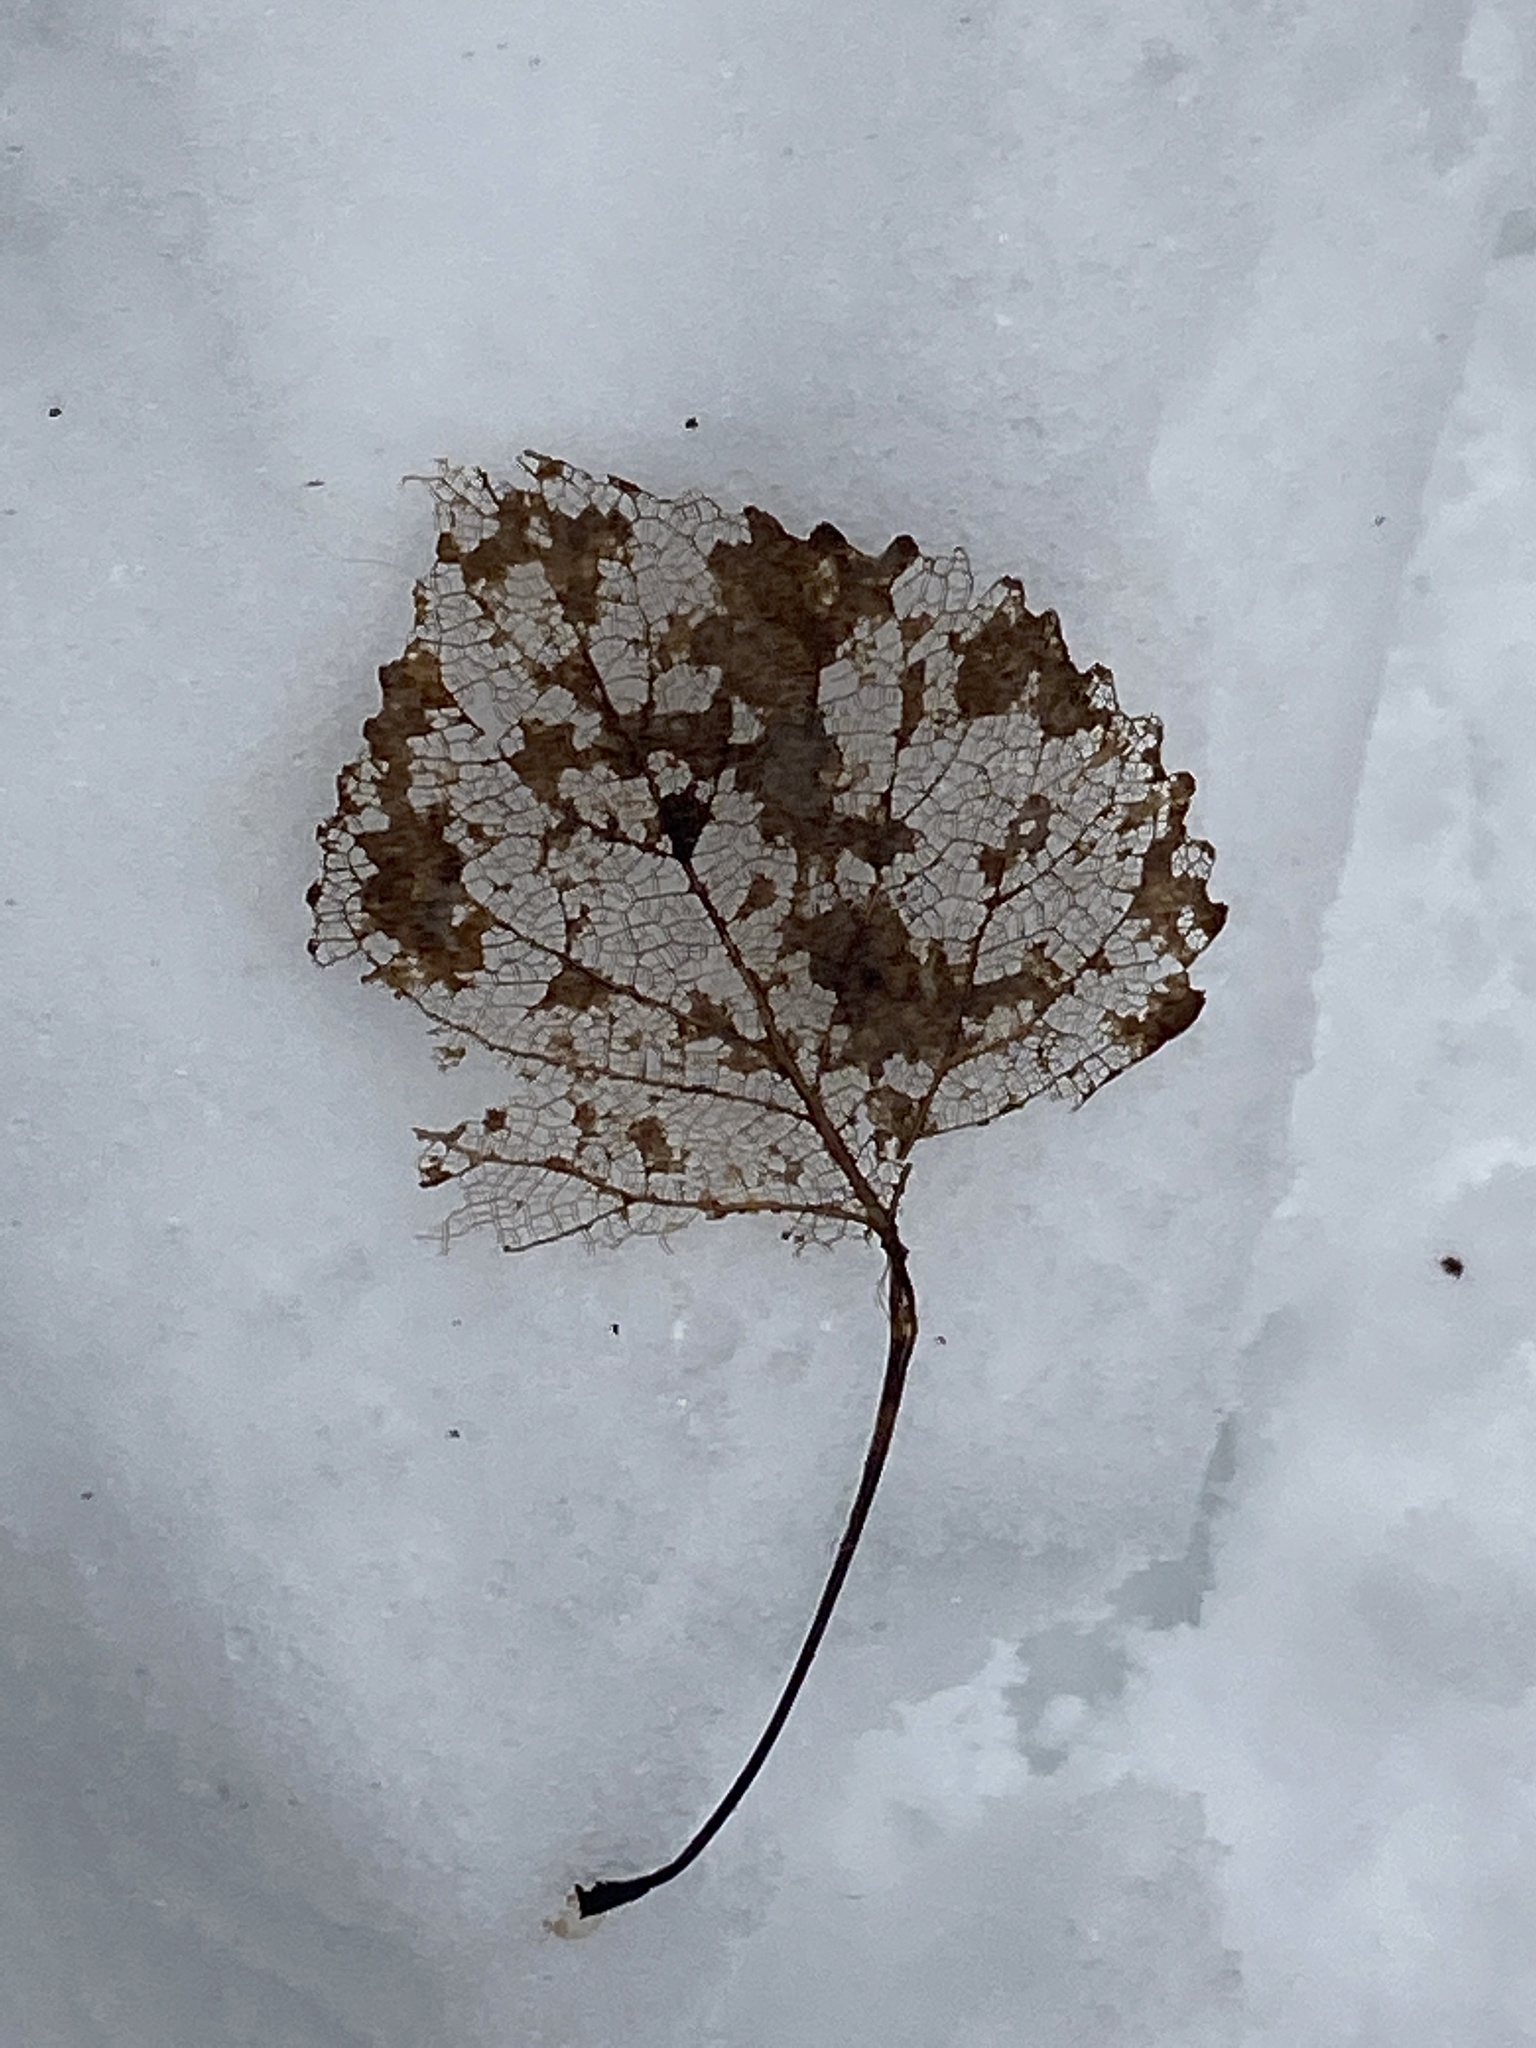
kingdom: Plantae
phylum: Tracheophyta
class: Magnoliopsida
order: Malpighiales
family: Salicaceae
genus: Populus
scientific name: Populus deltoides
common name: Eastern cottonwood
